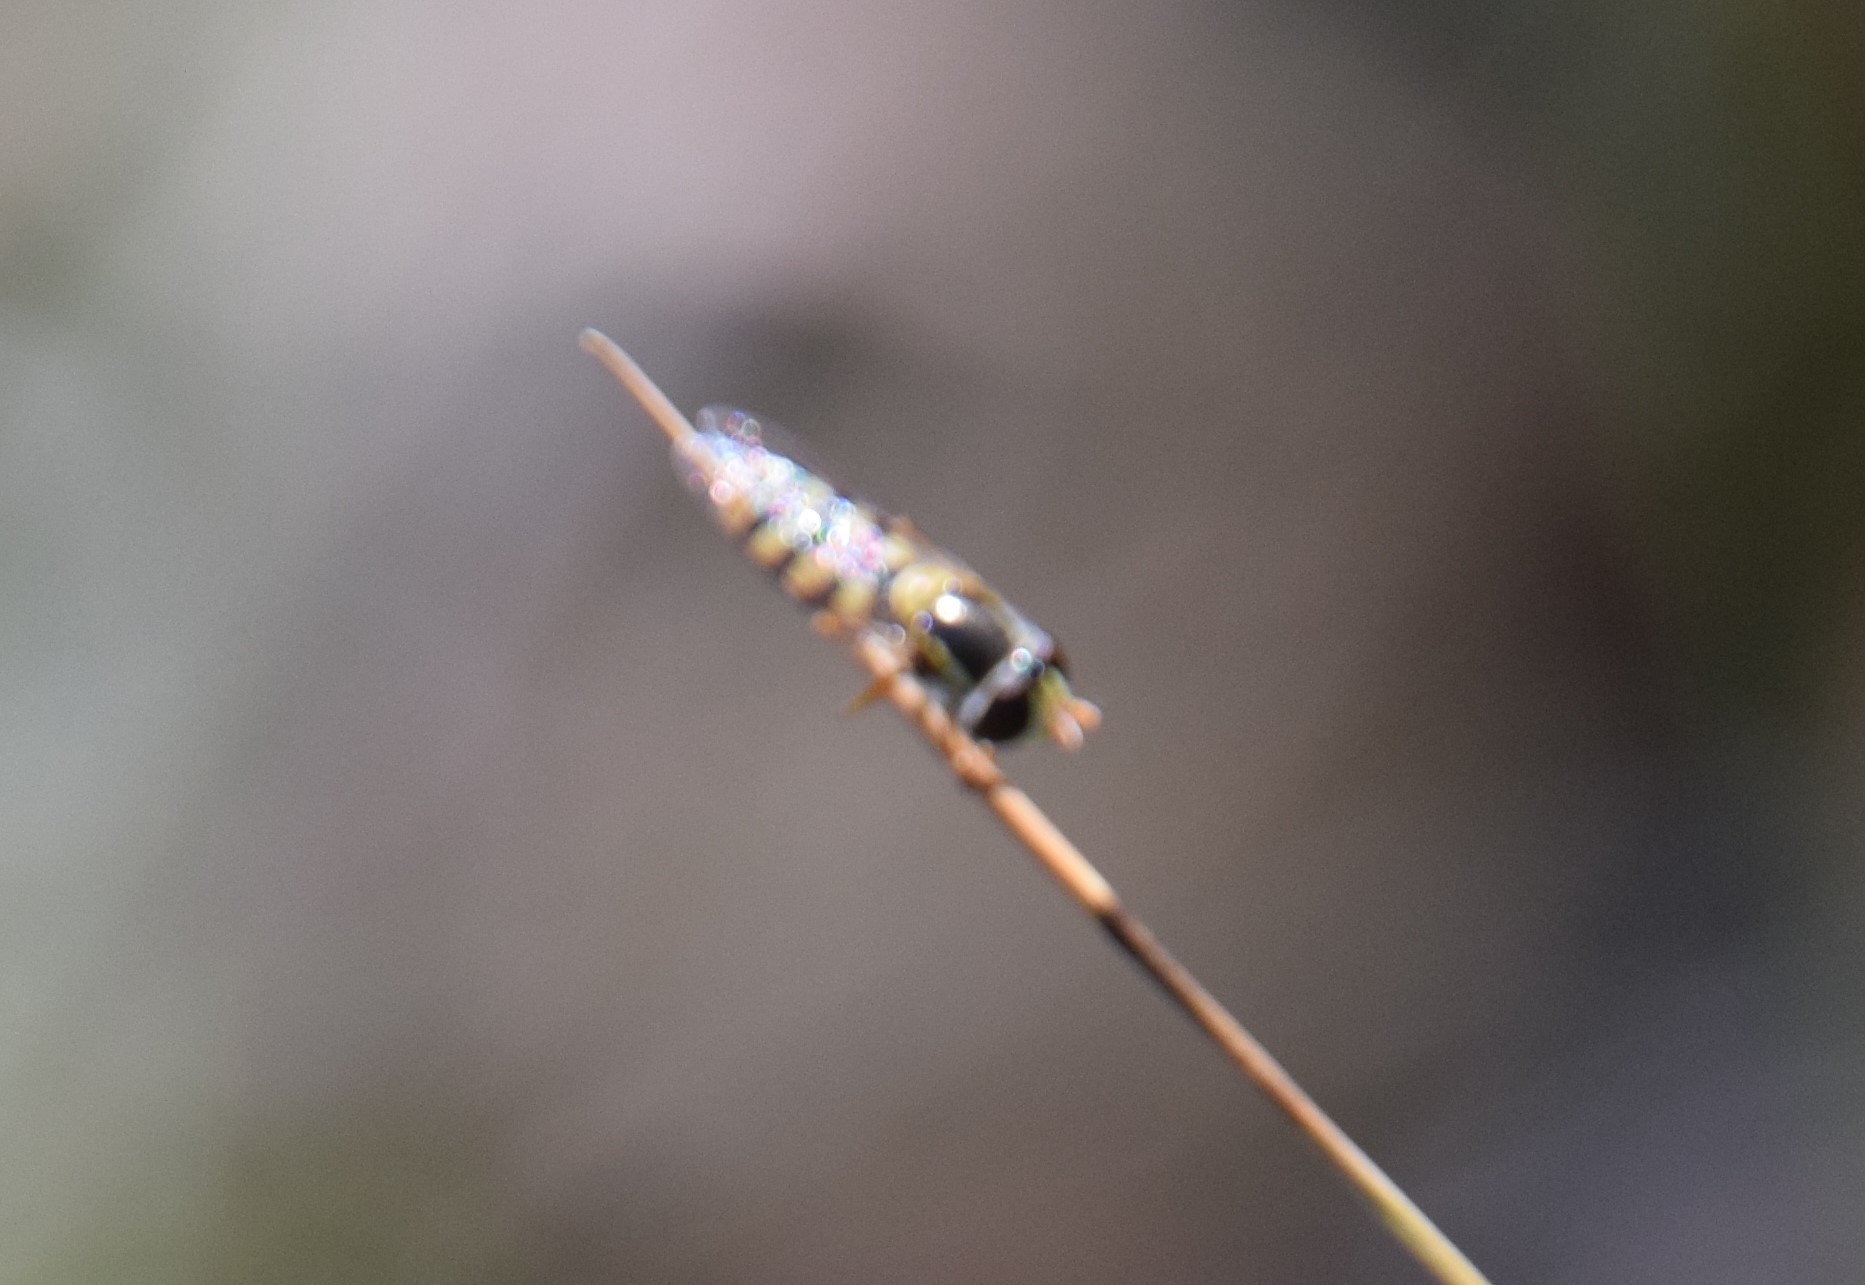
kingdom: Animalia
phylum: Arthropoda
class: Insecta
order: Diptera
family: Syrphidae
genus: Simosyrphus
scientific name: Simosyrphus grandicornis
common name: Hoverfly
